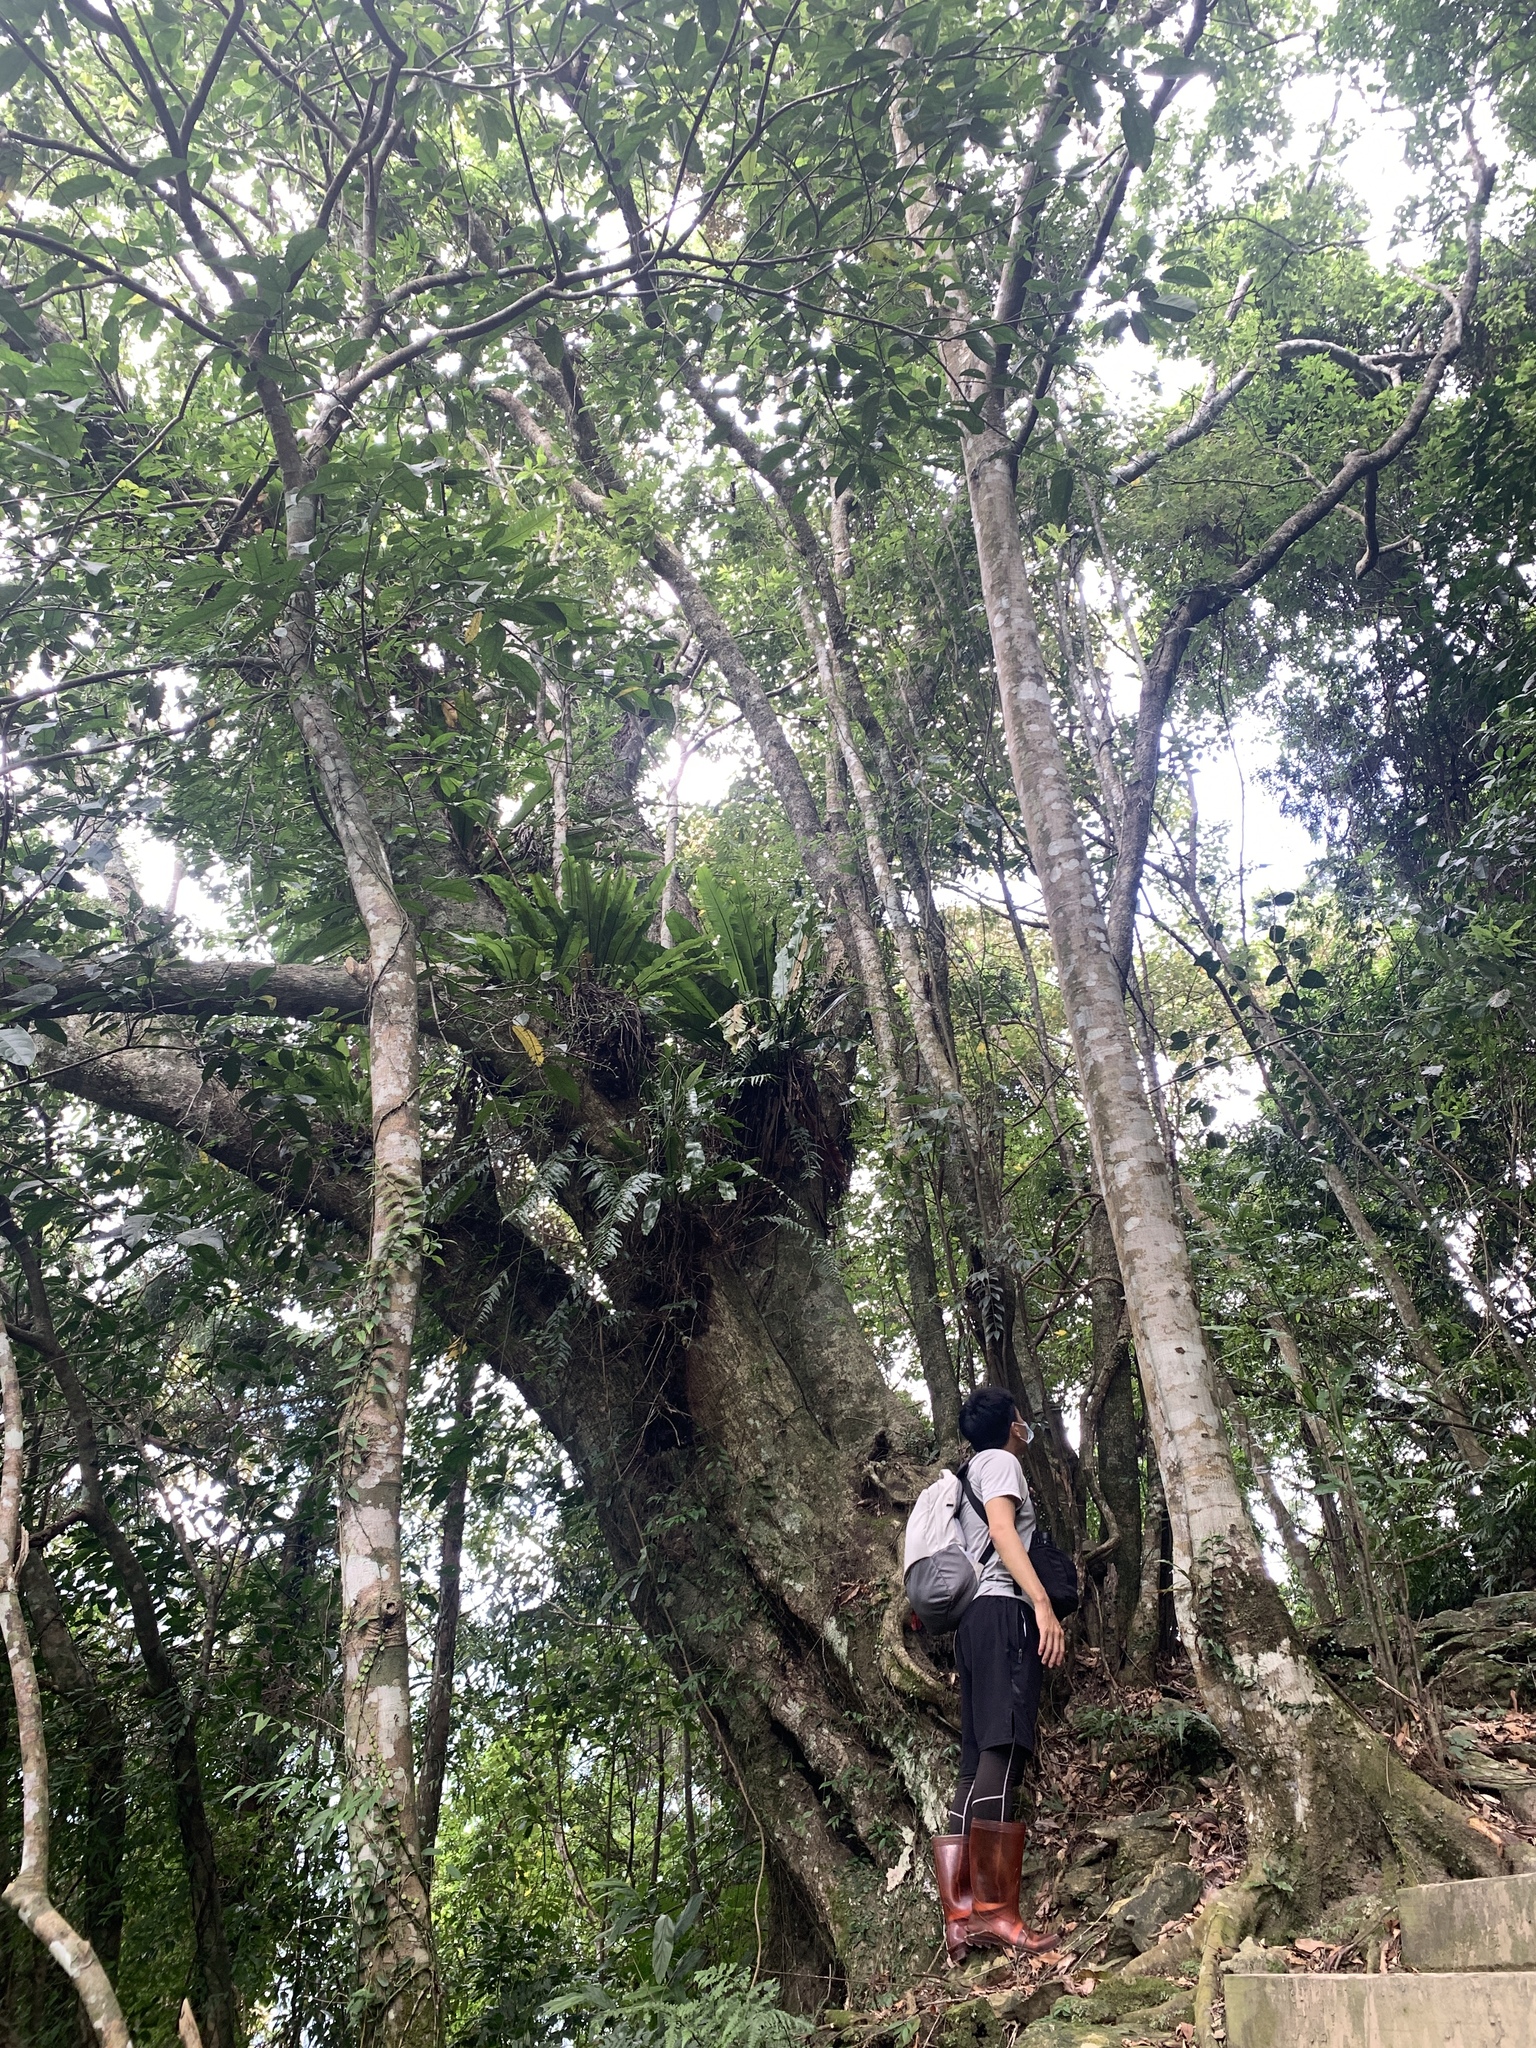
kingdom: Plantae
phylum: Tracheophyta
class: Magnoliopsida
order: Fagales
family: Fagaceae
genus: Quercus
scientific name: Quercus glauca
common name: Ring-cup oak
